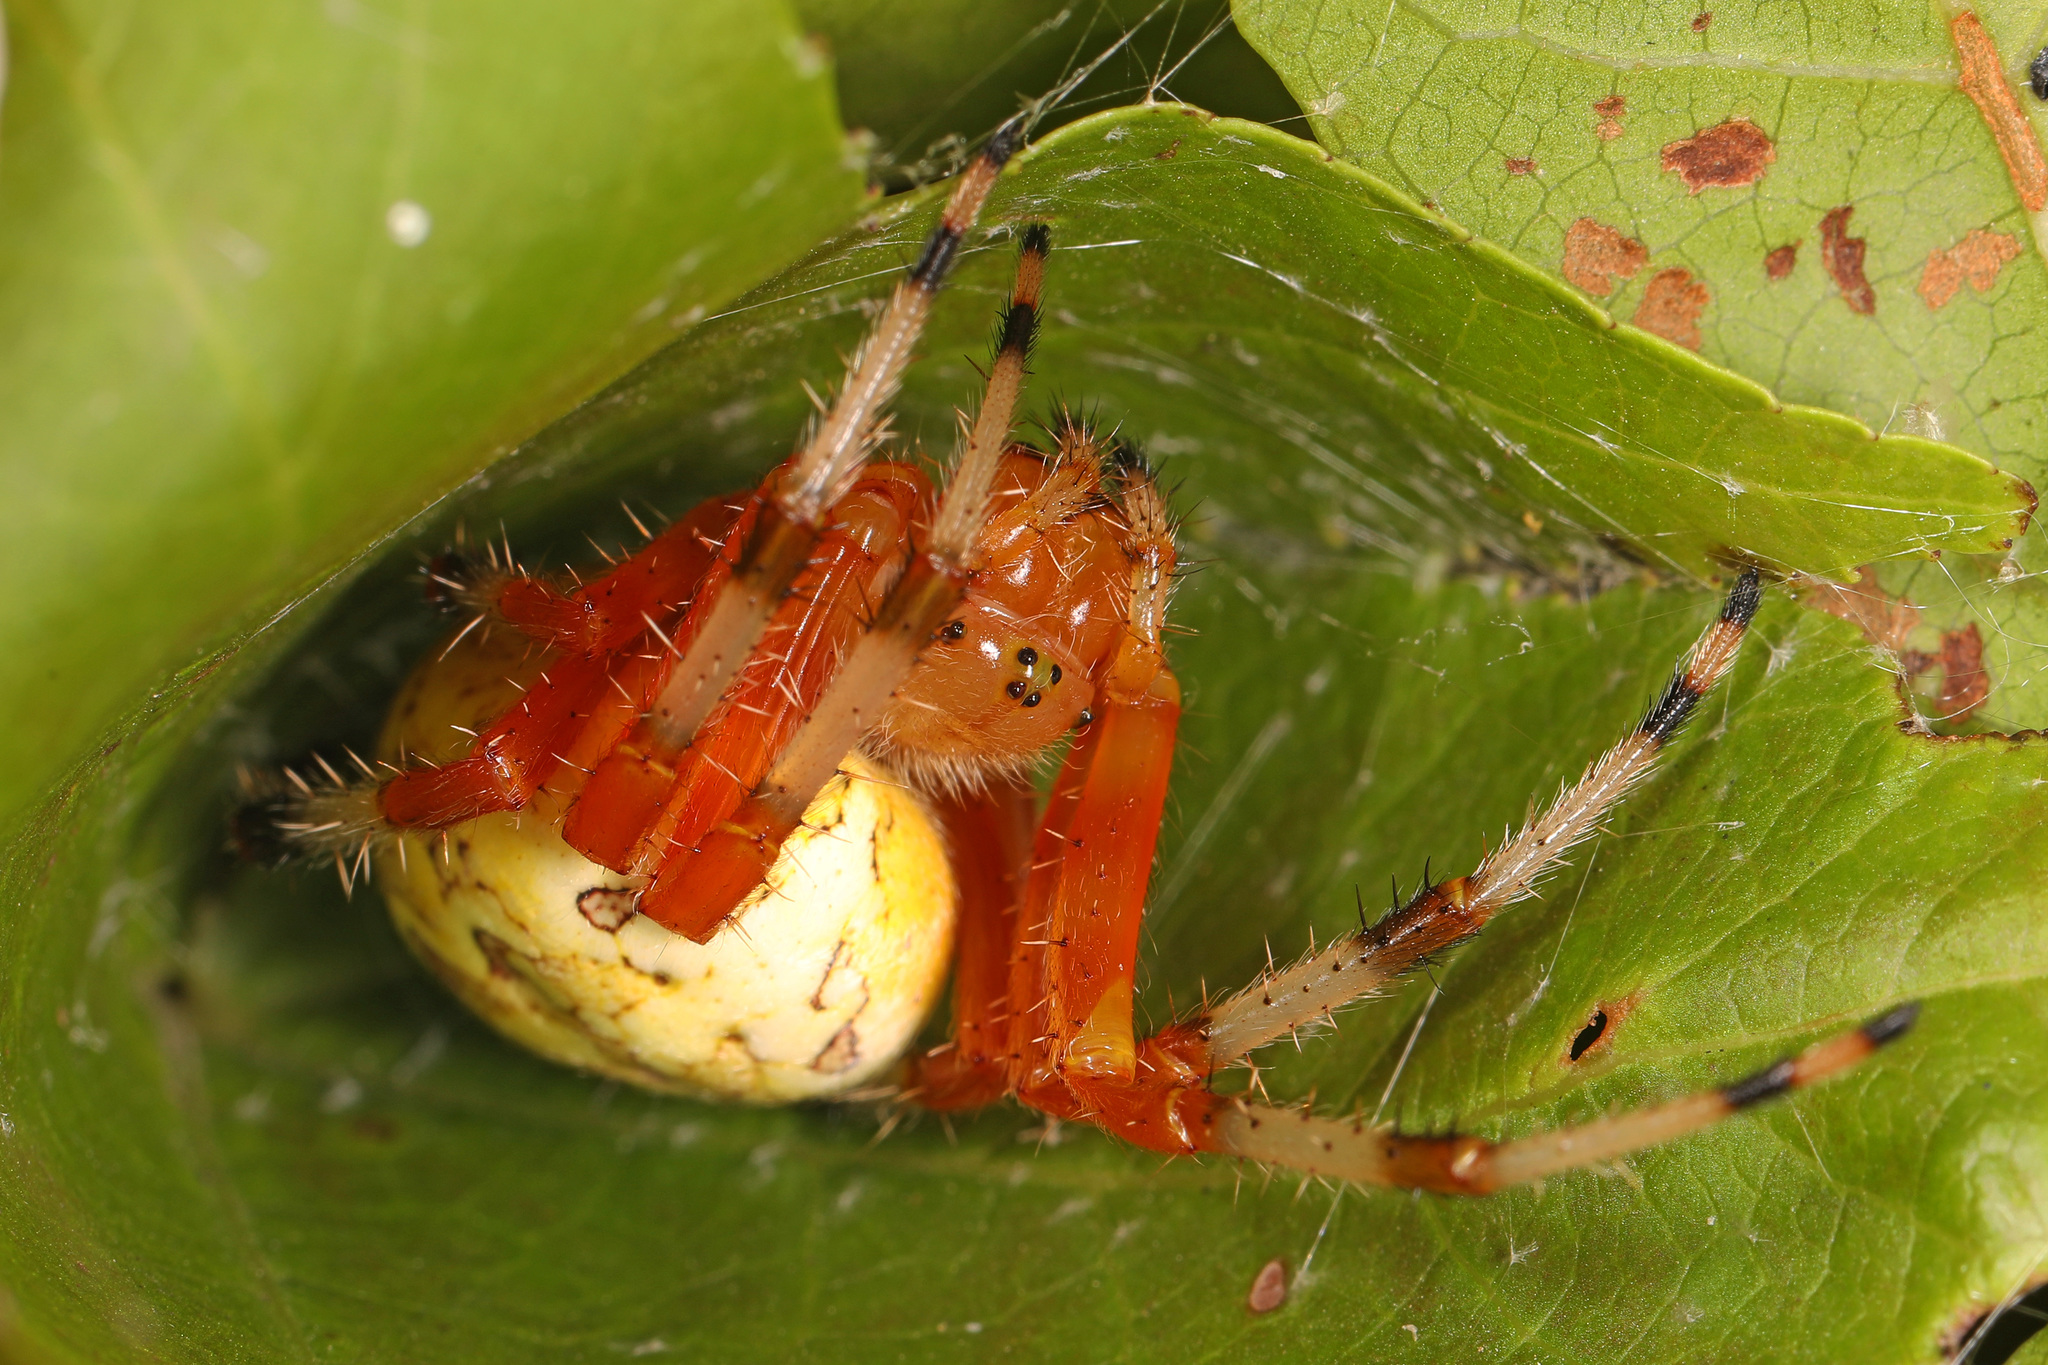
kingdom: Animalia
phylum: Arthropoda
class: Arachnida
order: Araneae
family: Araneidae
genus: Araneus
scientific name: Araneus marmoreus
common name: Marbled orbweaver
